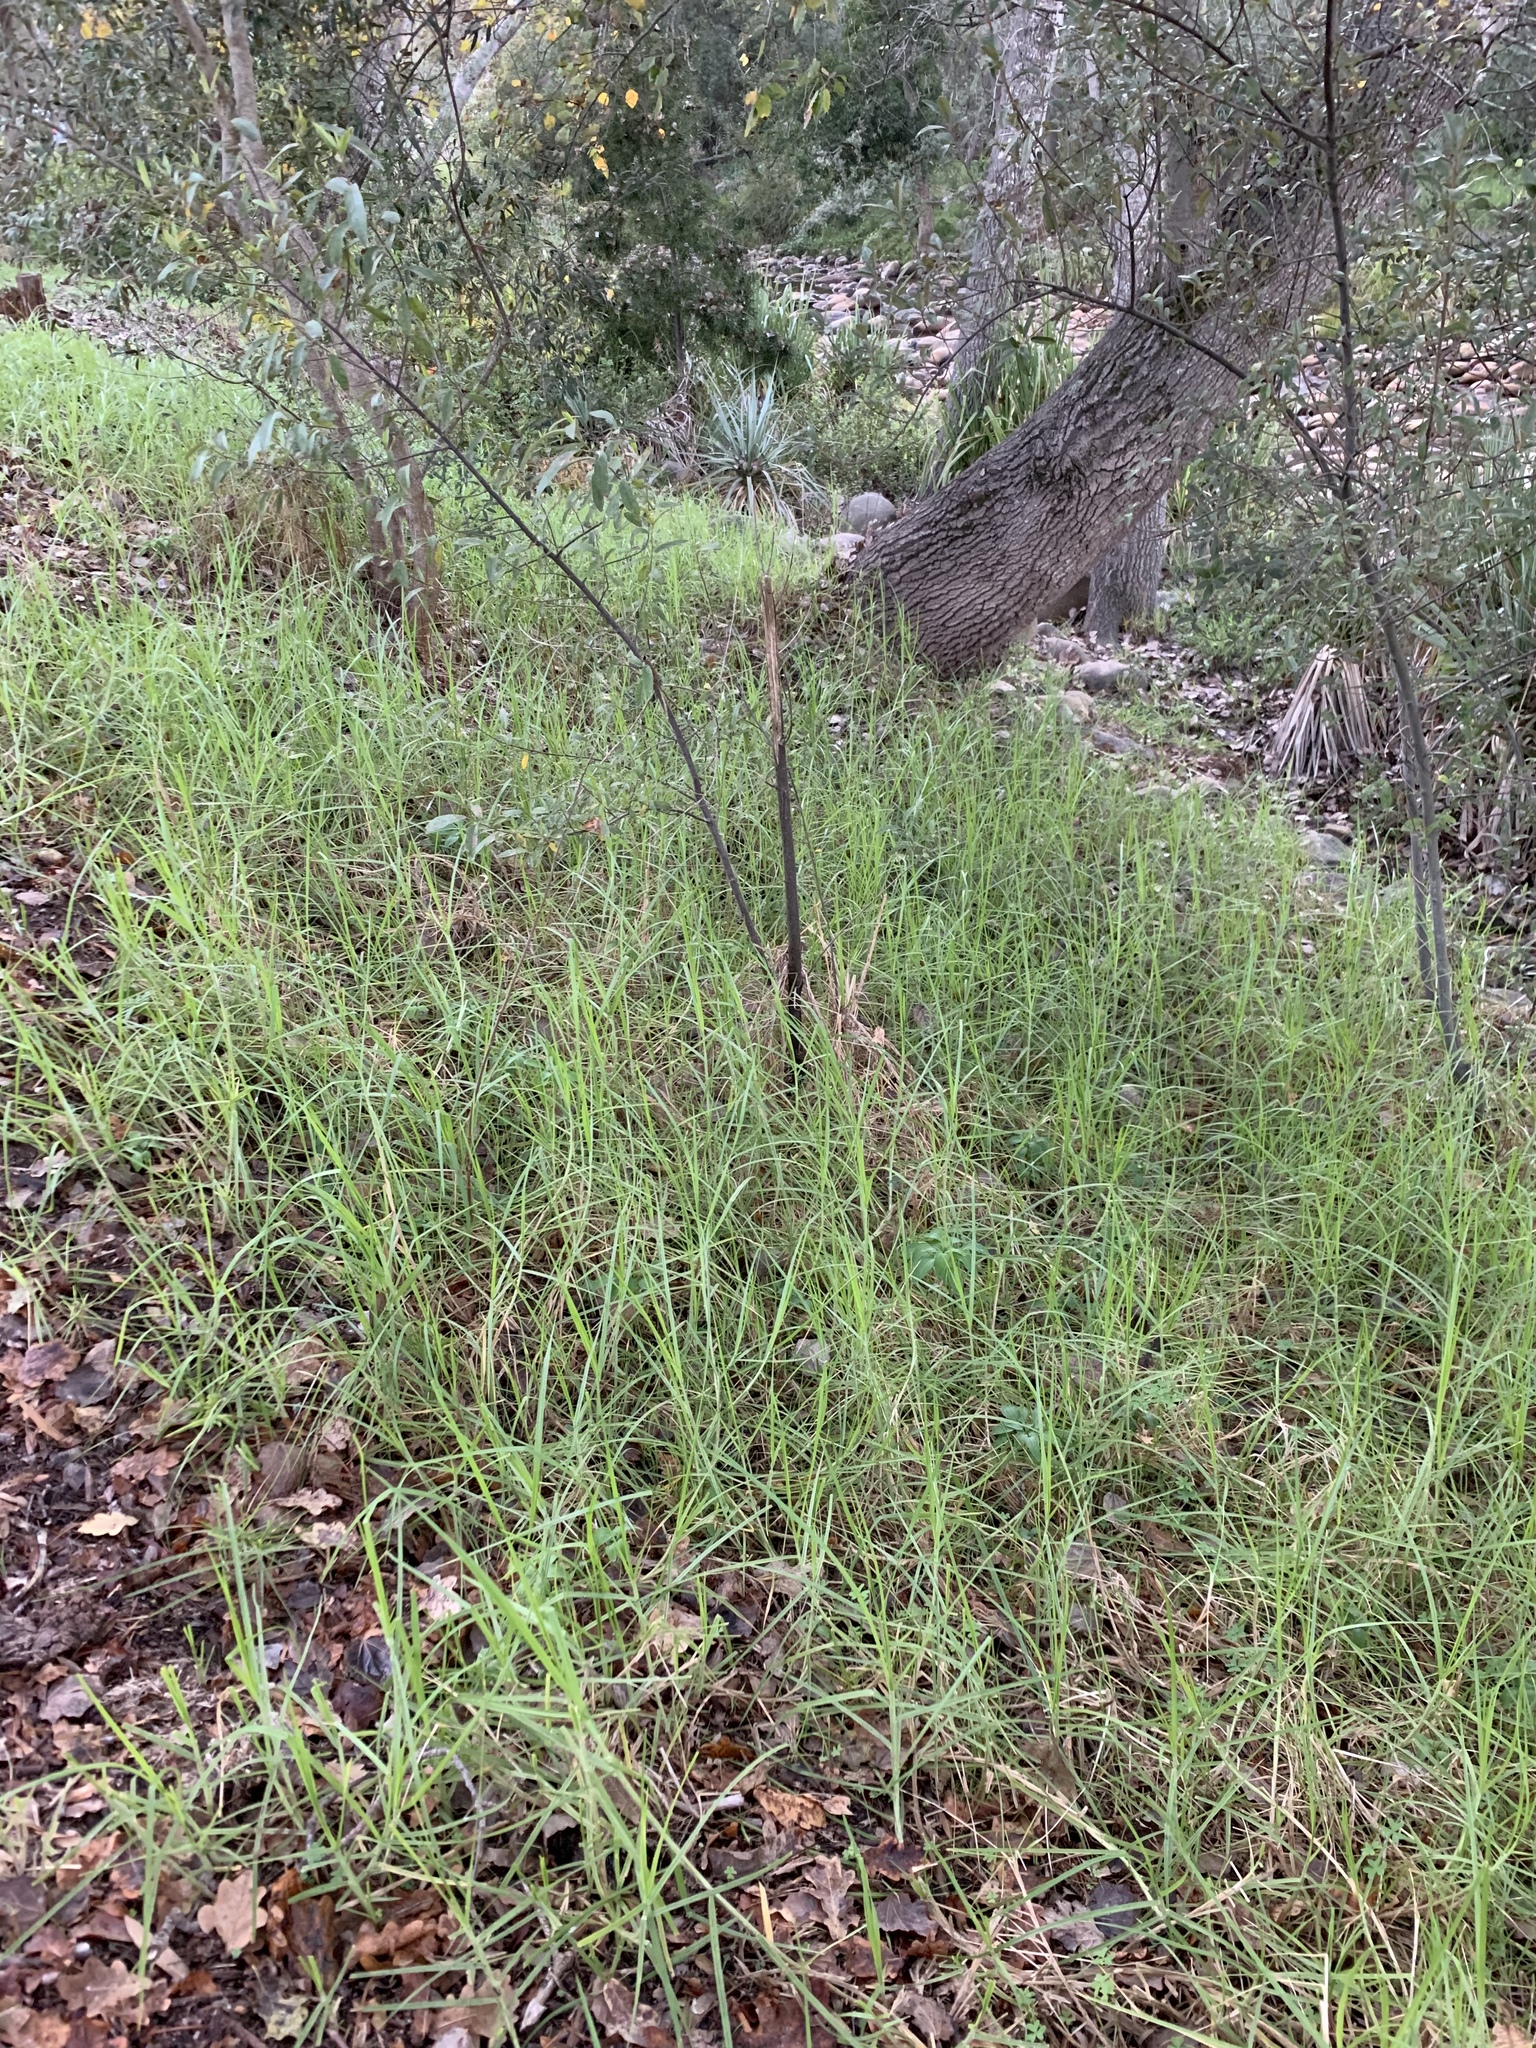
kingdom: Plantae
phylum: Tracheophyta
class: Liliopsida
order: Poales
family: Poaceae
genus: Cenchrus
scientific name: Cenchrus clandestinus
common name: Kikuyugrass
